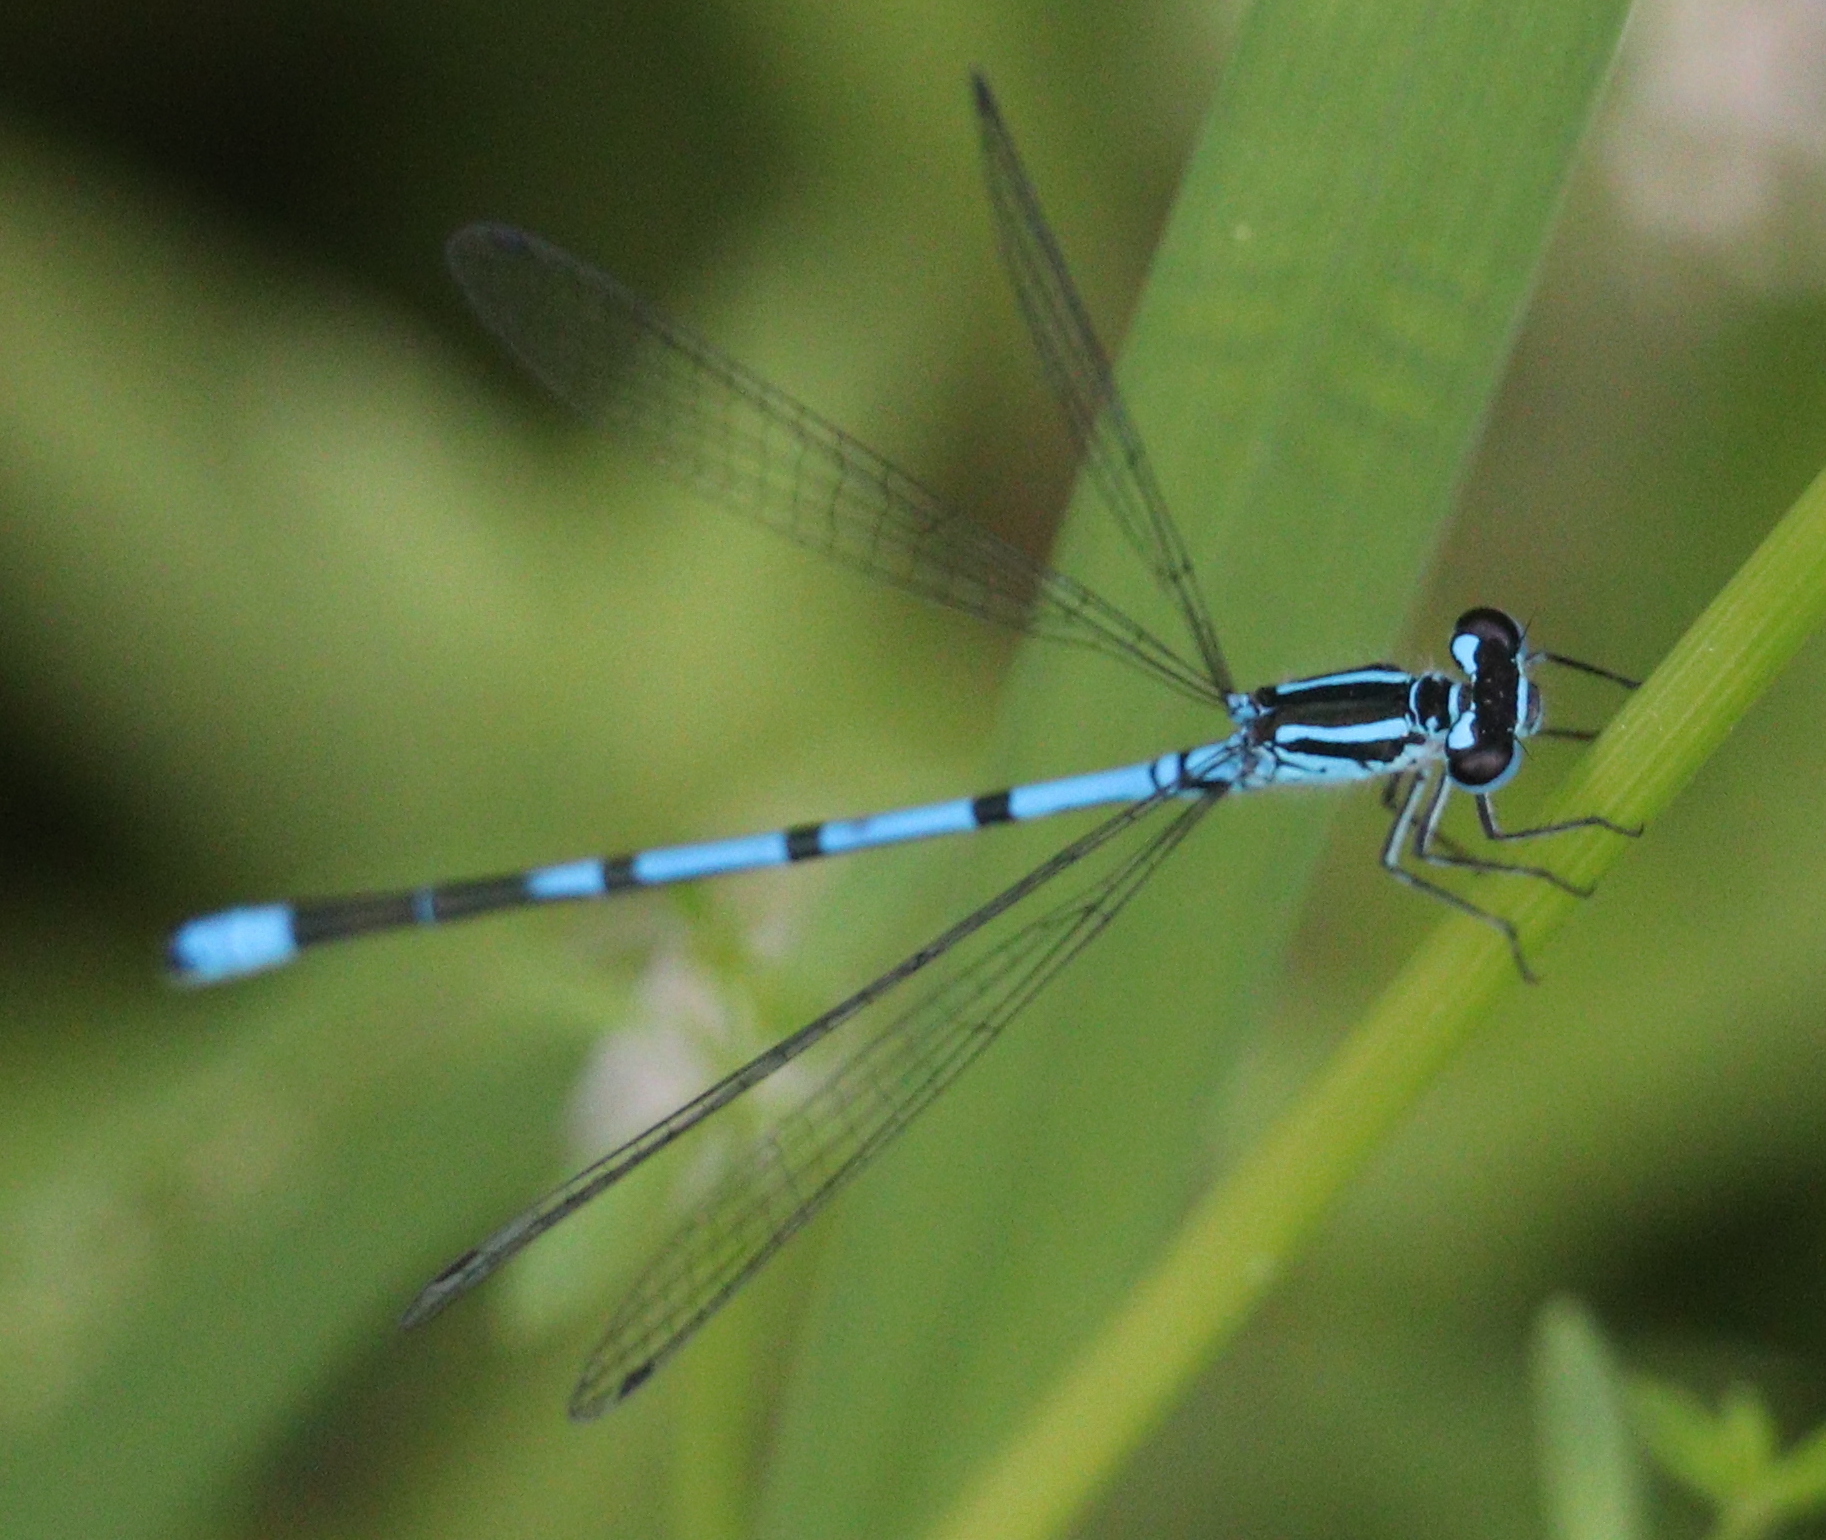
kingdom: Animalia
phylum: Arthropoda
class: Insecta
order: Odonata
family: Coenagrionidae
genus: Coenagrion
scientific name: Coenagrion puella
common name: Azure damselfly
